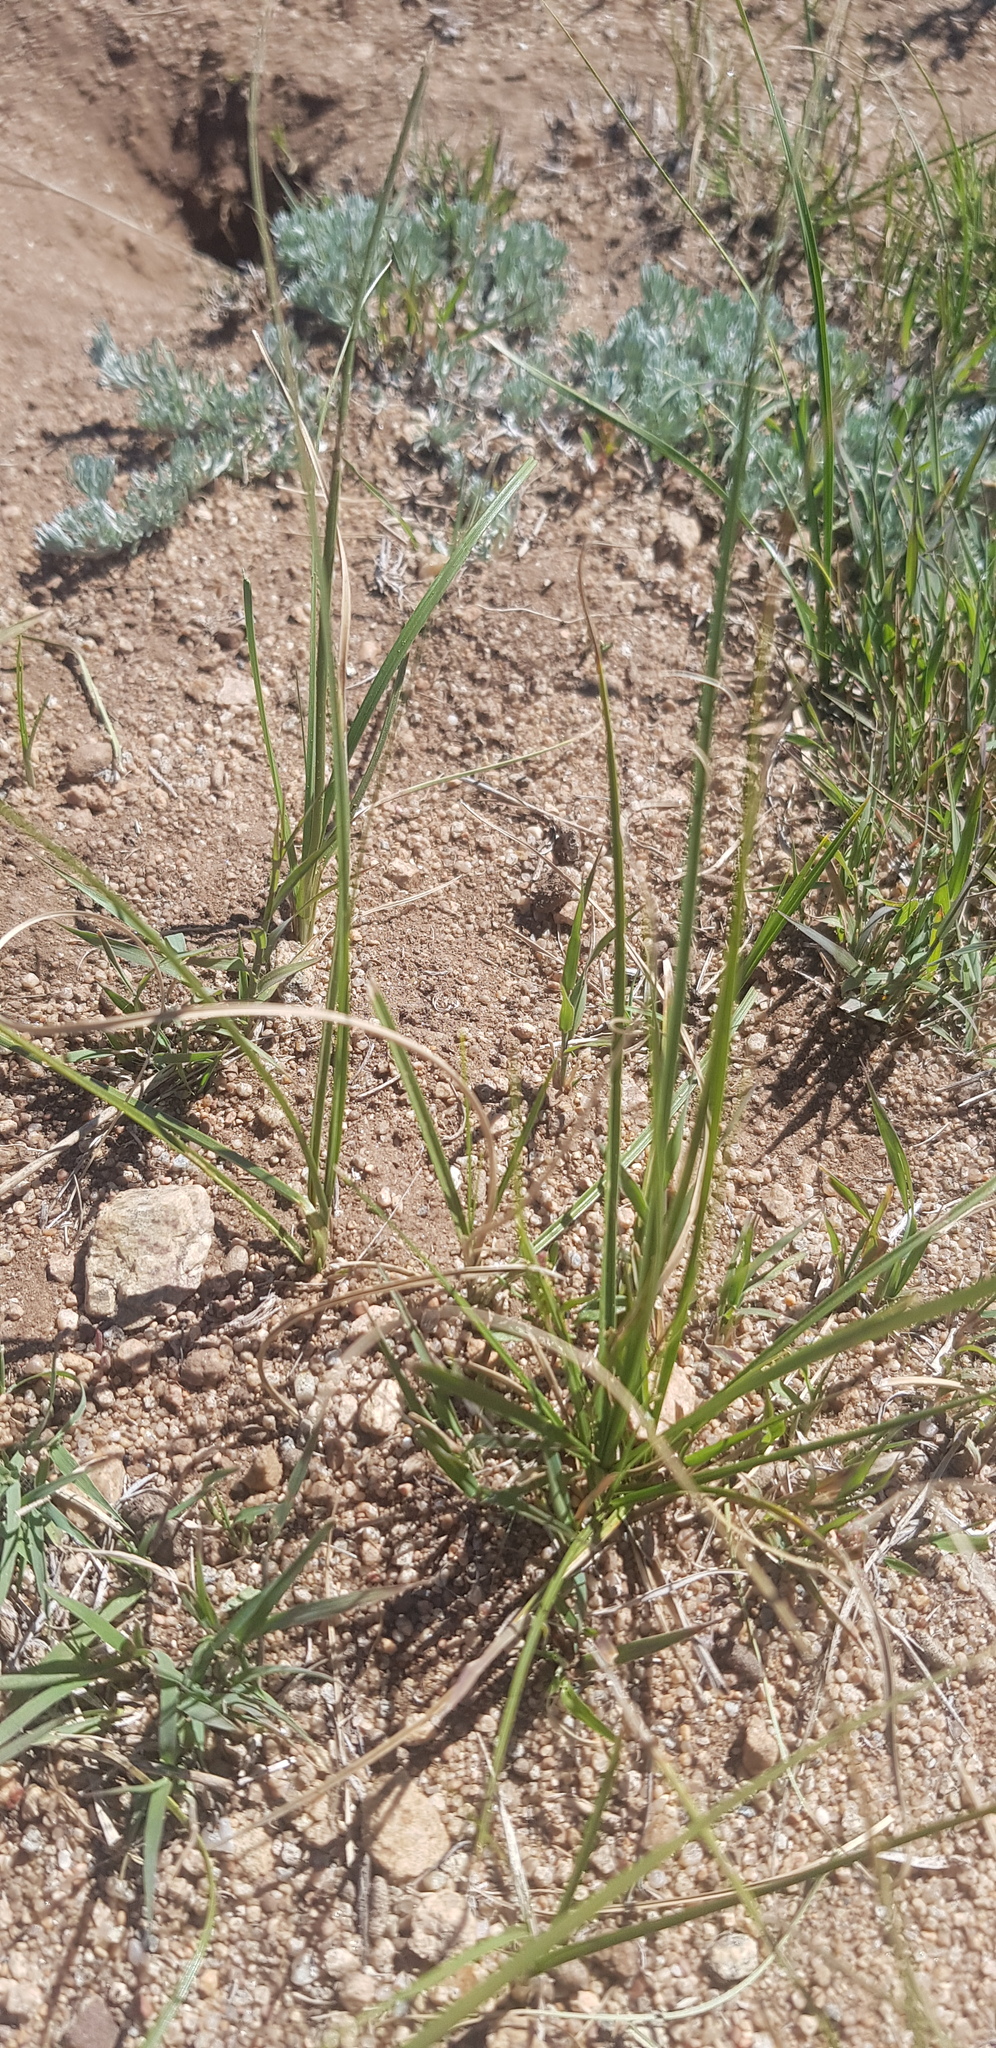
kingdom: Plantae
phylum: Tracheophyta
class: Liliopsida
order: Poales
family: Cyperaceae
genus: Carex
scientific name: Carex duriuscula
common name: Involute-leaved sedge
